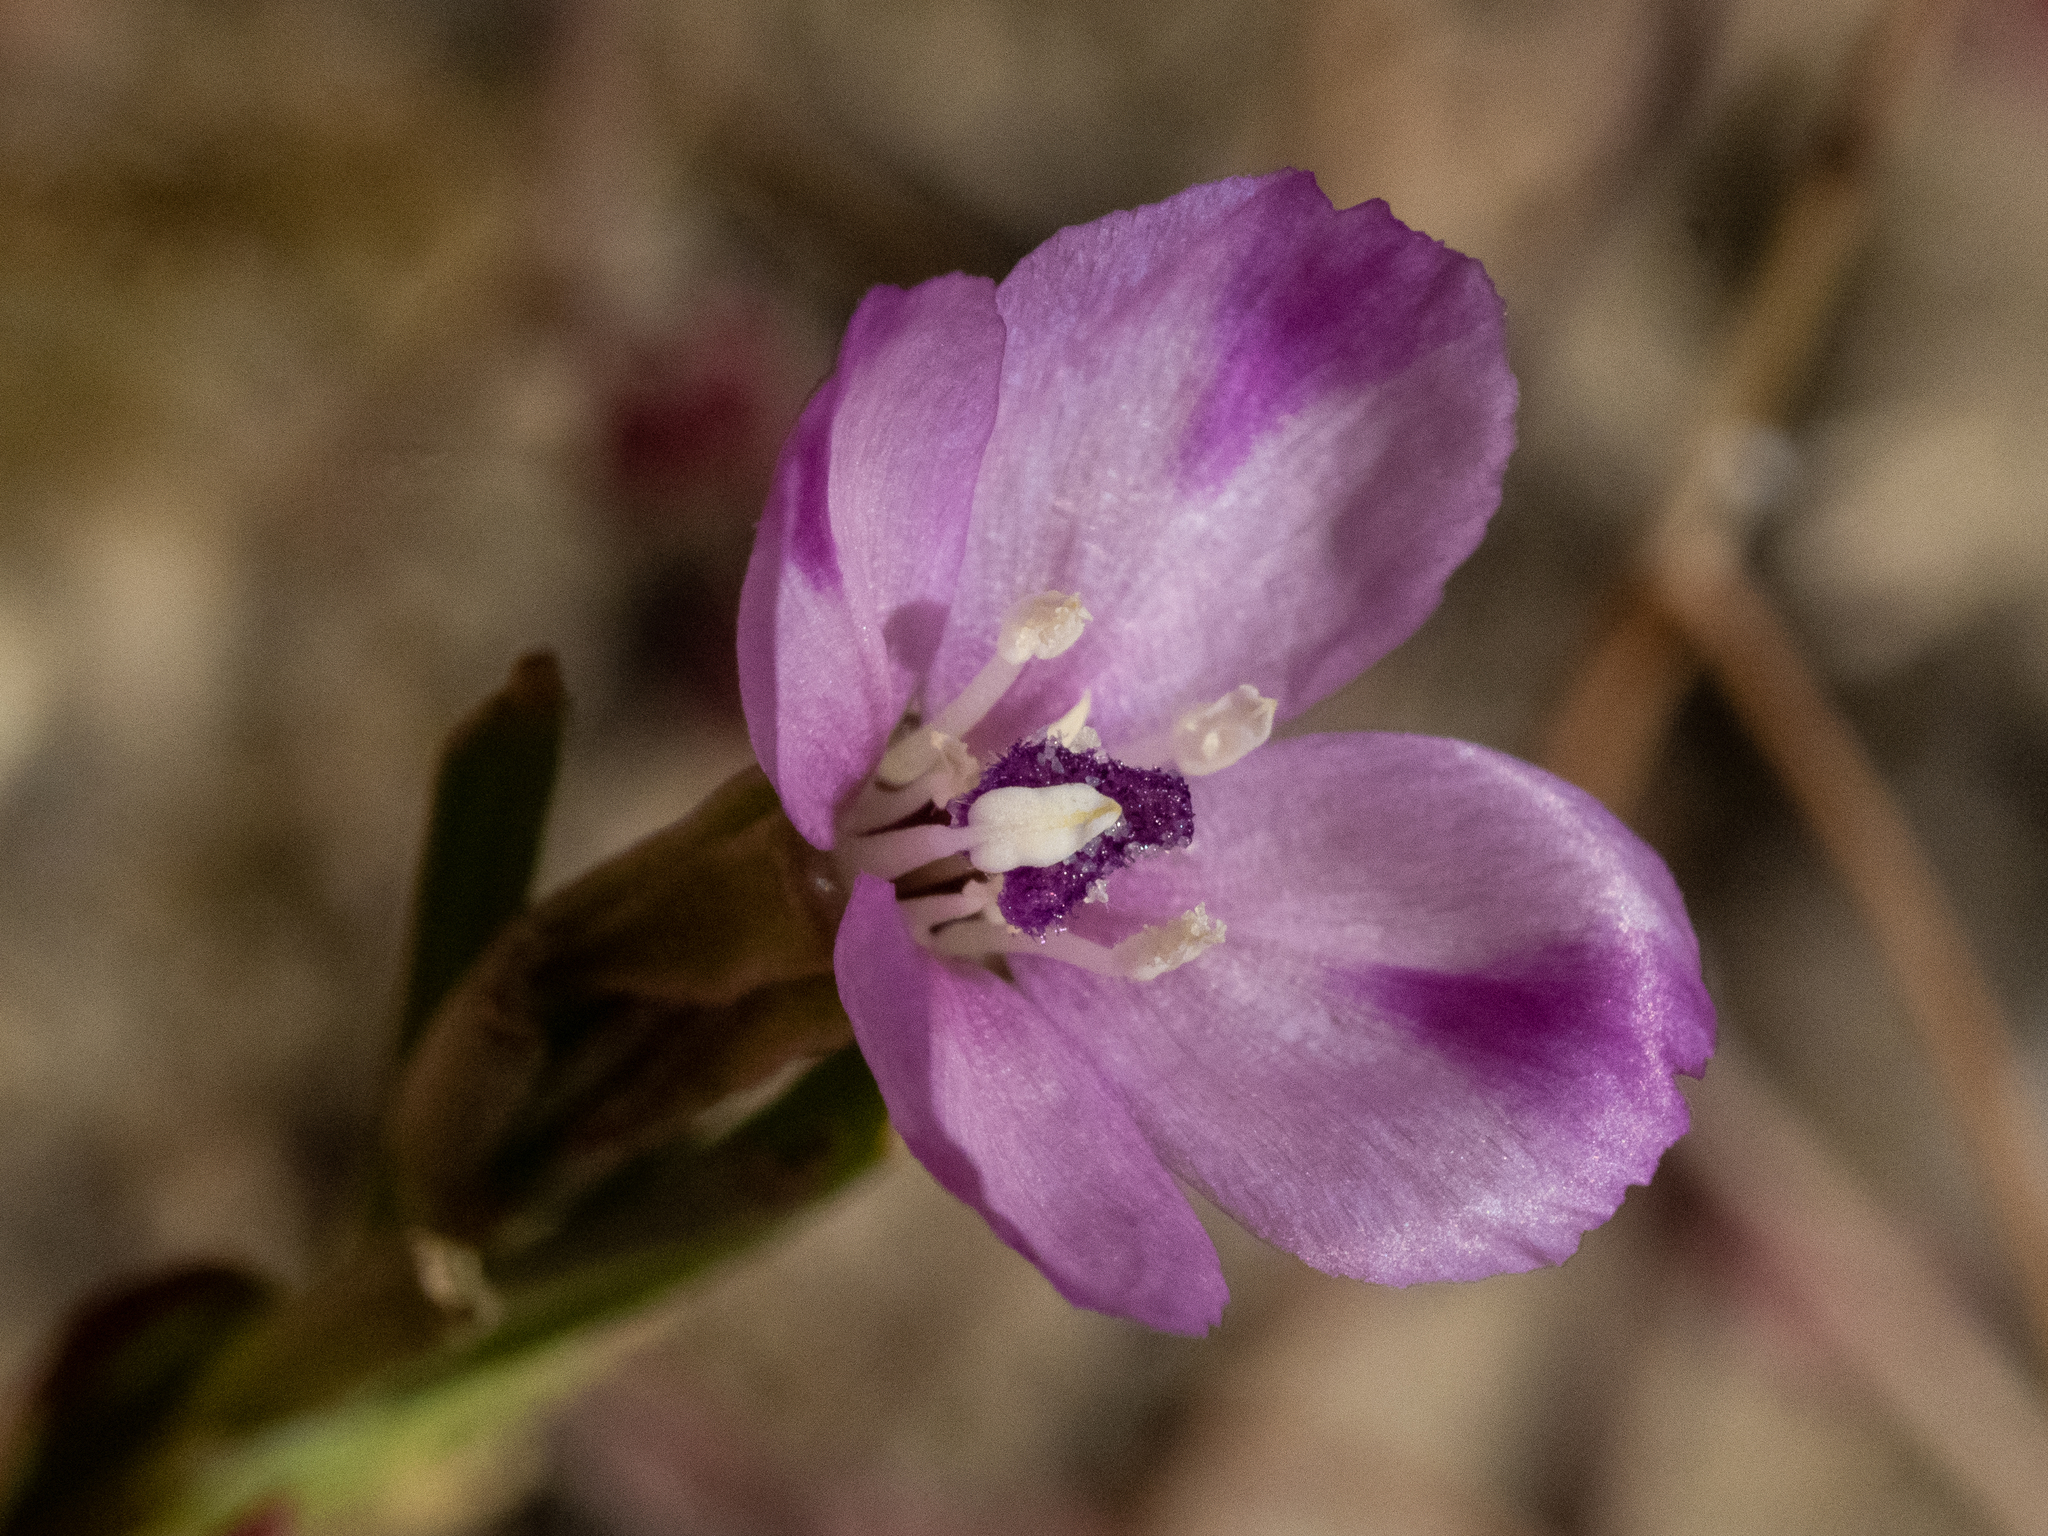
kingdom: Plantae
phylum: Tracheophyta
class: Magnoliopsida
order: Myrtales
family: Onagraceae
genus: Clarkia
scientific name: Clarkia purpurea
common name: Purple clarkia
